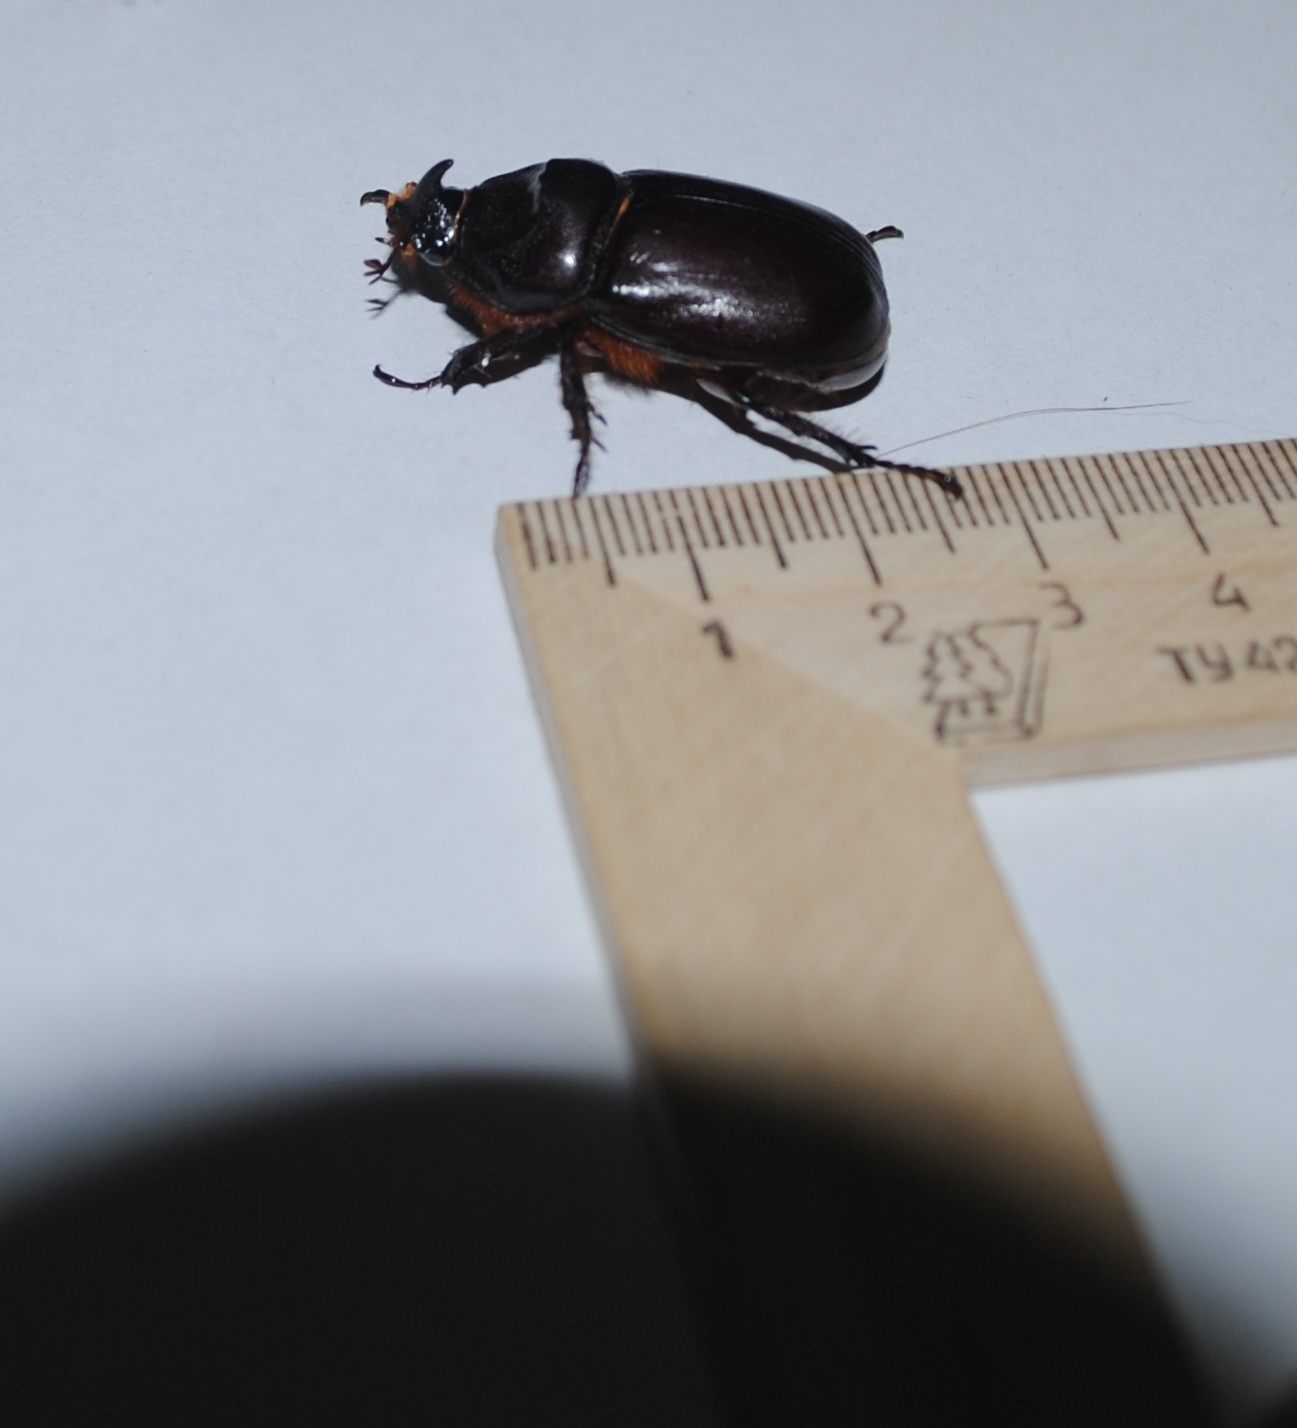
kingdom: Animalia
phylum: Arthropoda
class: Insecta
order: Coleoptera
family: Scarabaeidae
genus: Oryctes
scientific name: Oryctes nasicornis
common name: European rhinoceros beetle
